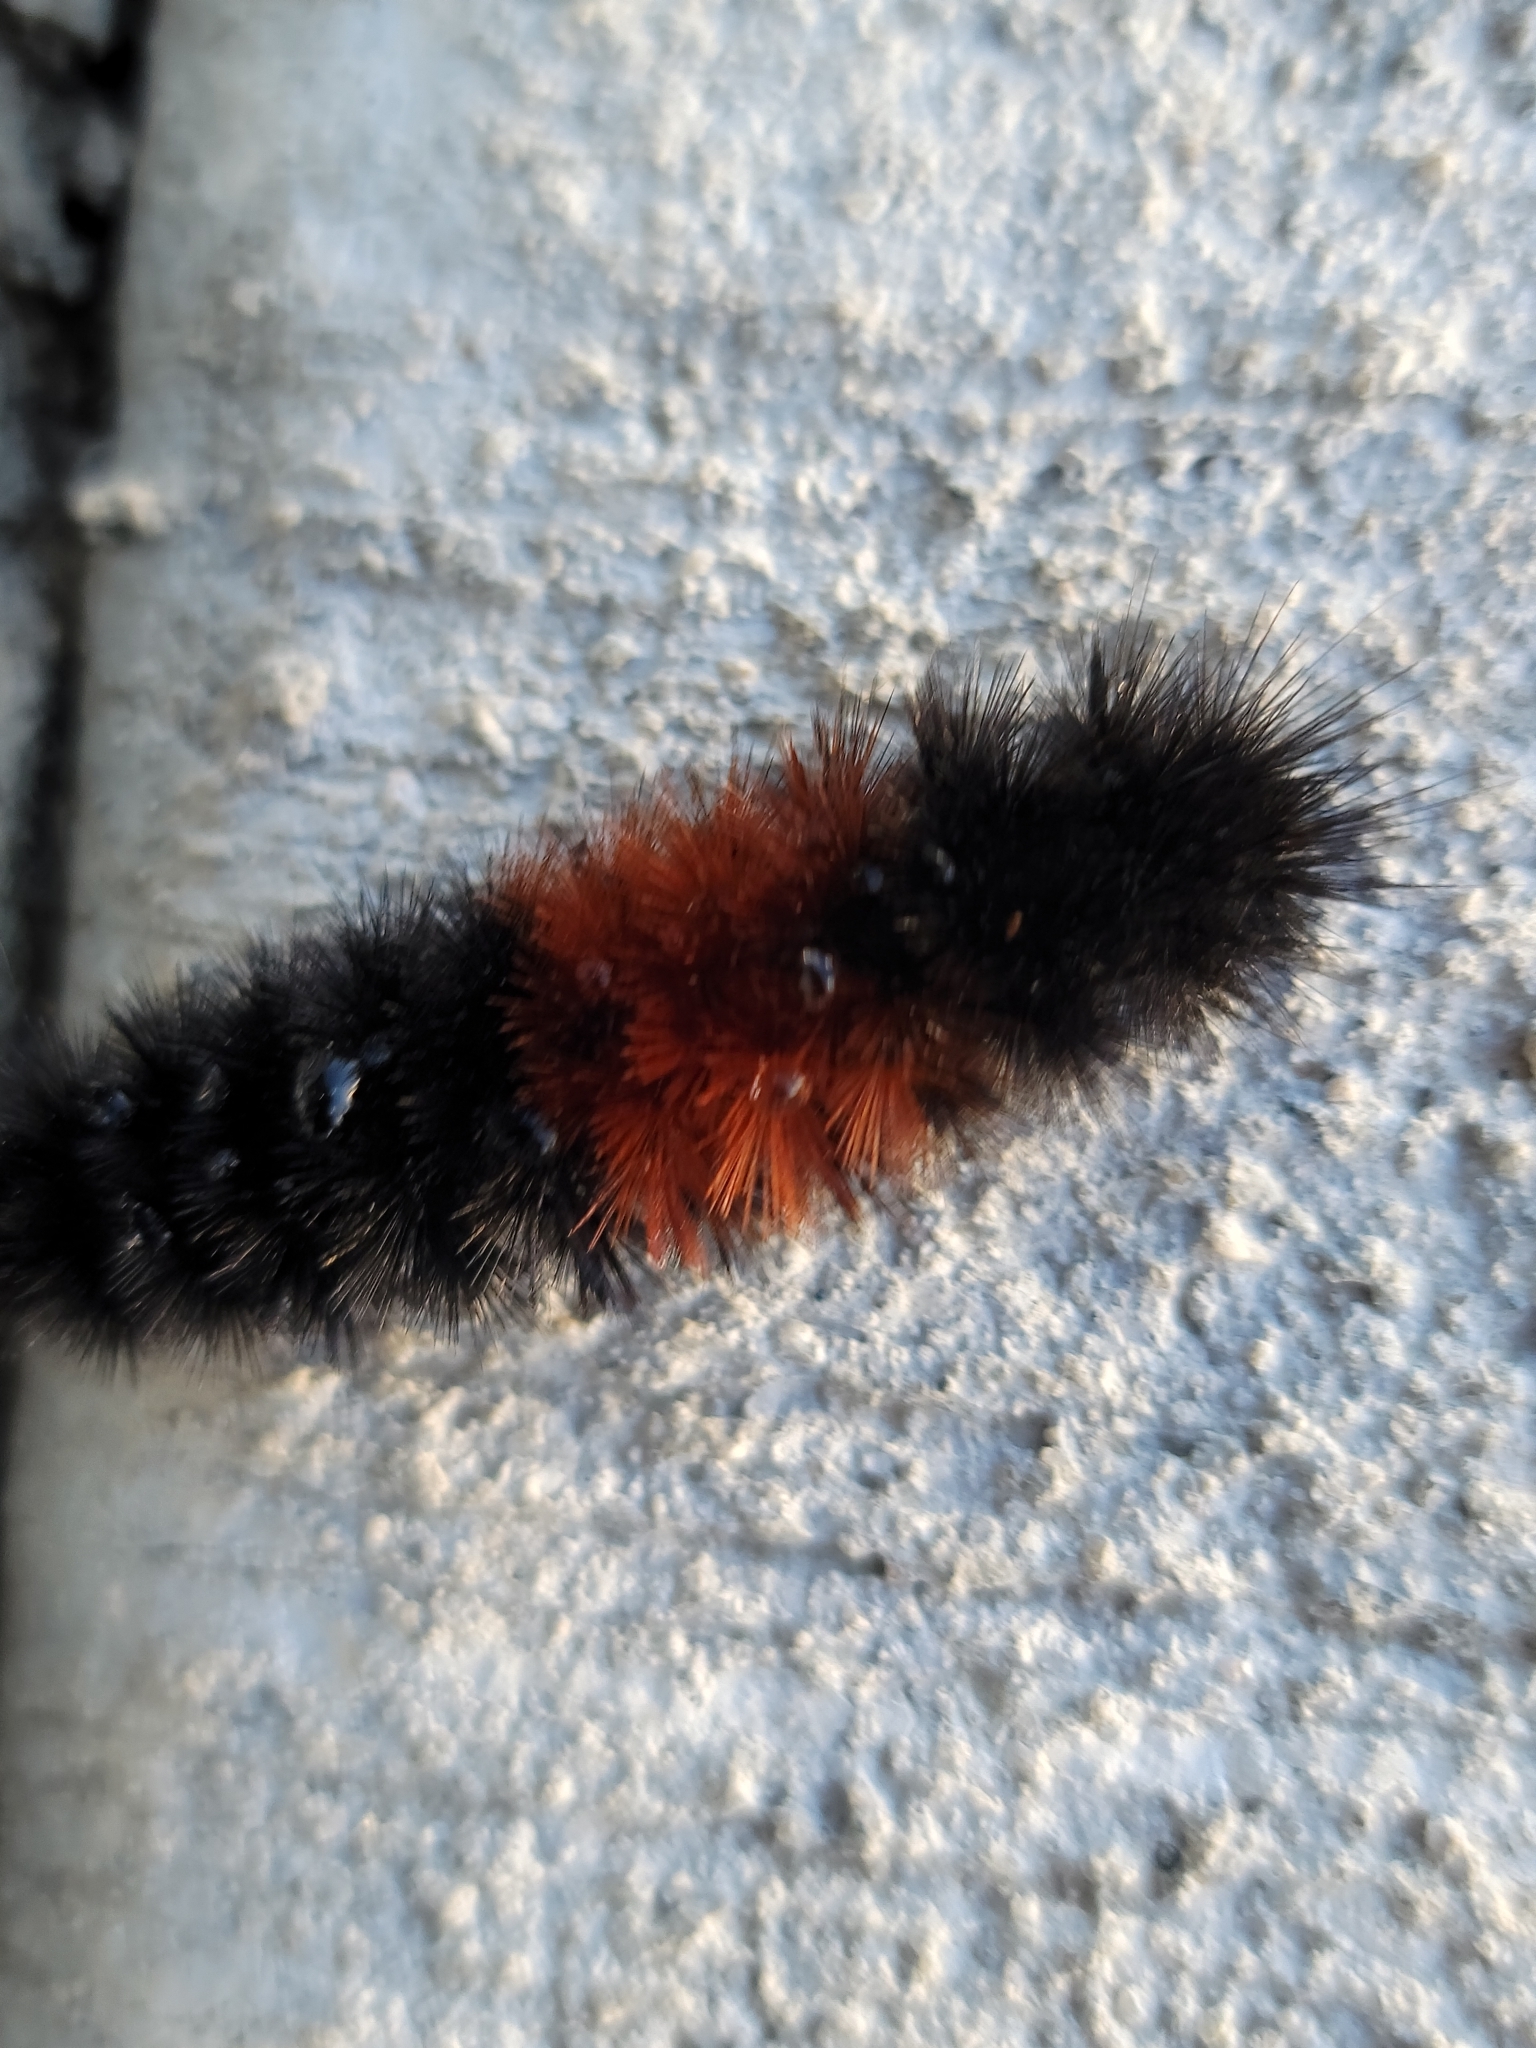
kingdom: Animalia
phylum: Arthropoda
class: Insecta
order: Lepidoptera
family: Erebidae
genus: Pyrrharctia
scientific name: Pyrrharctia isabella
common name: Isabella tiger moth
